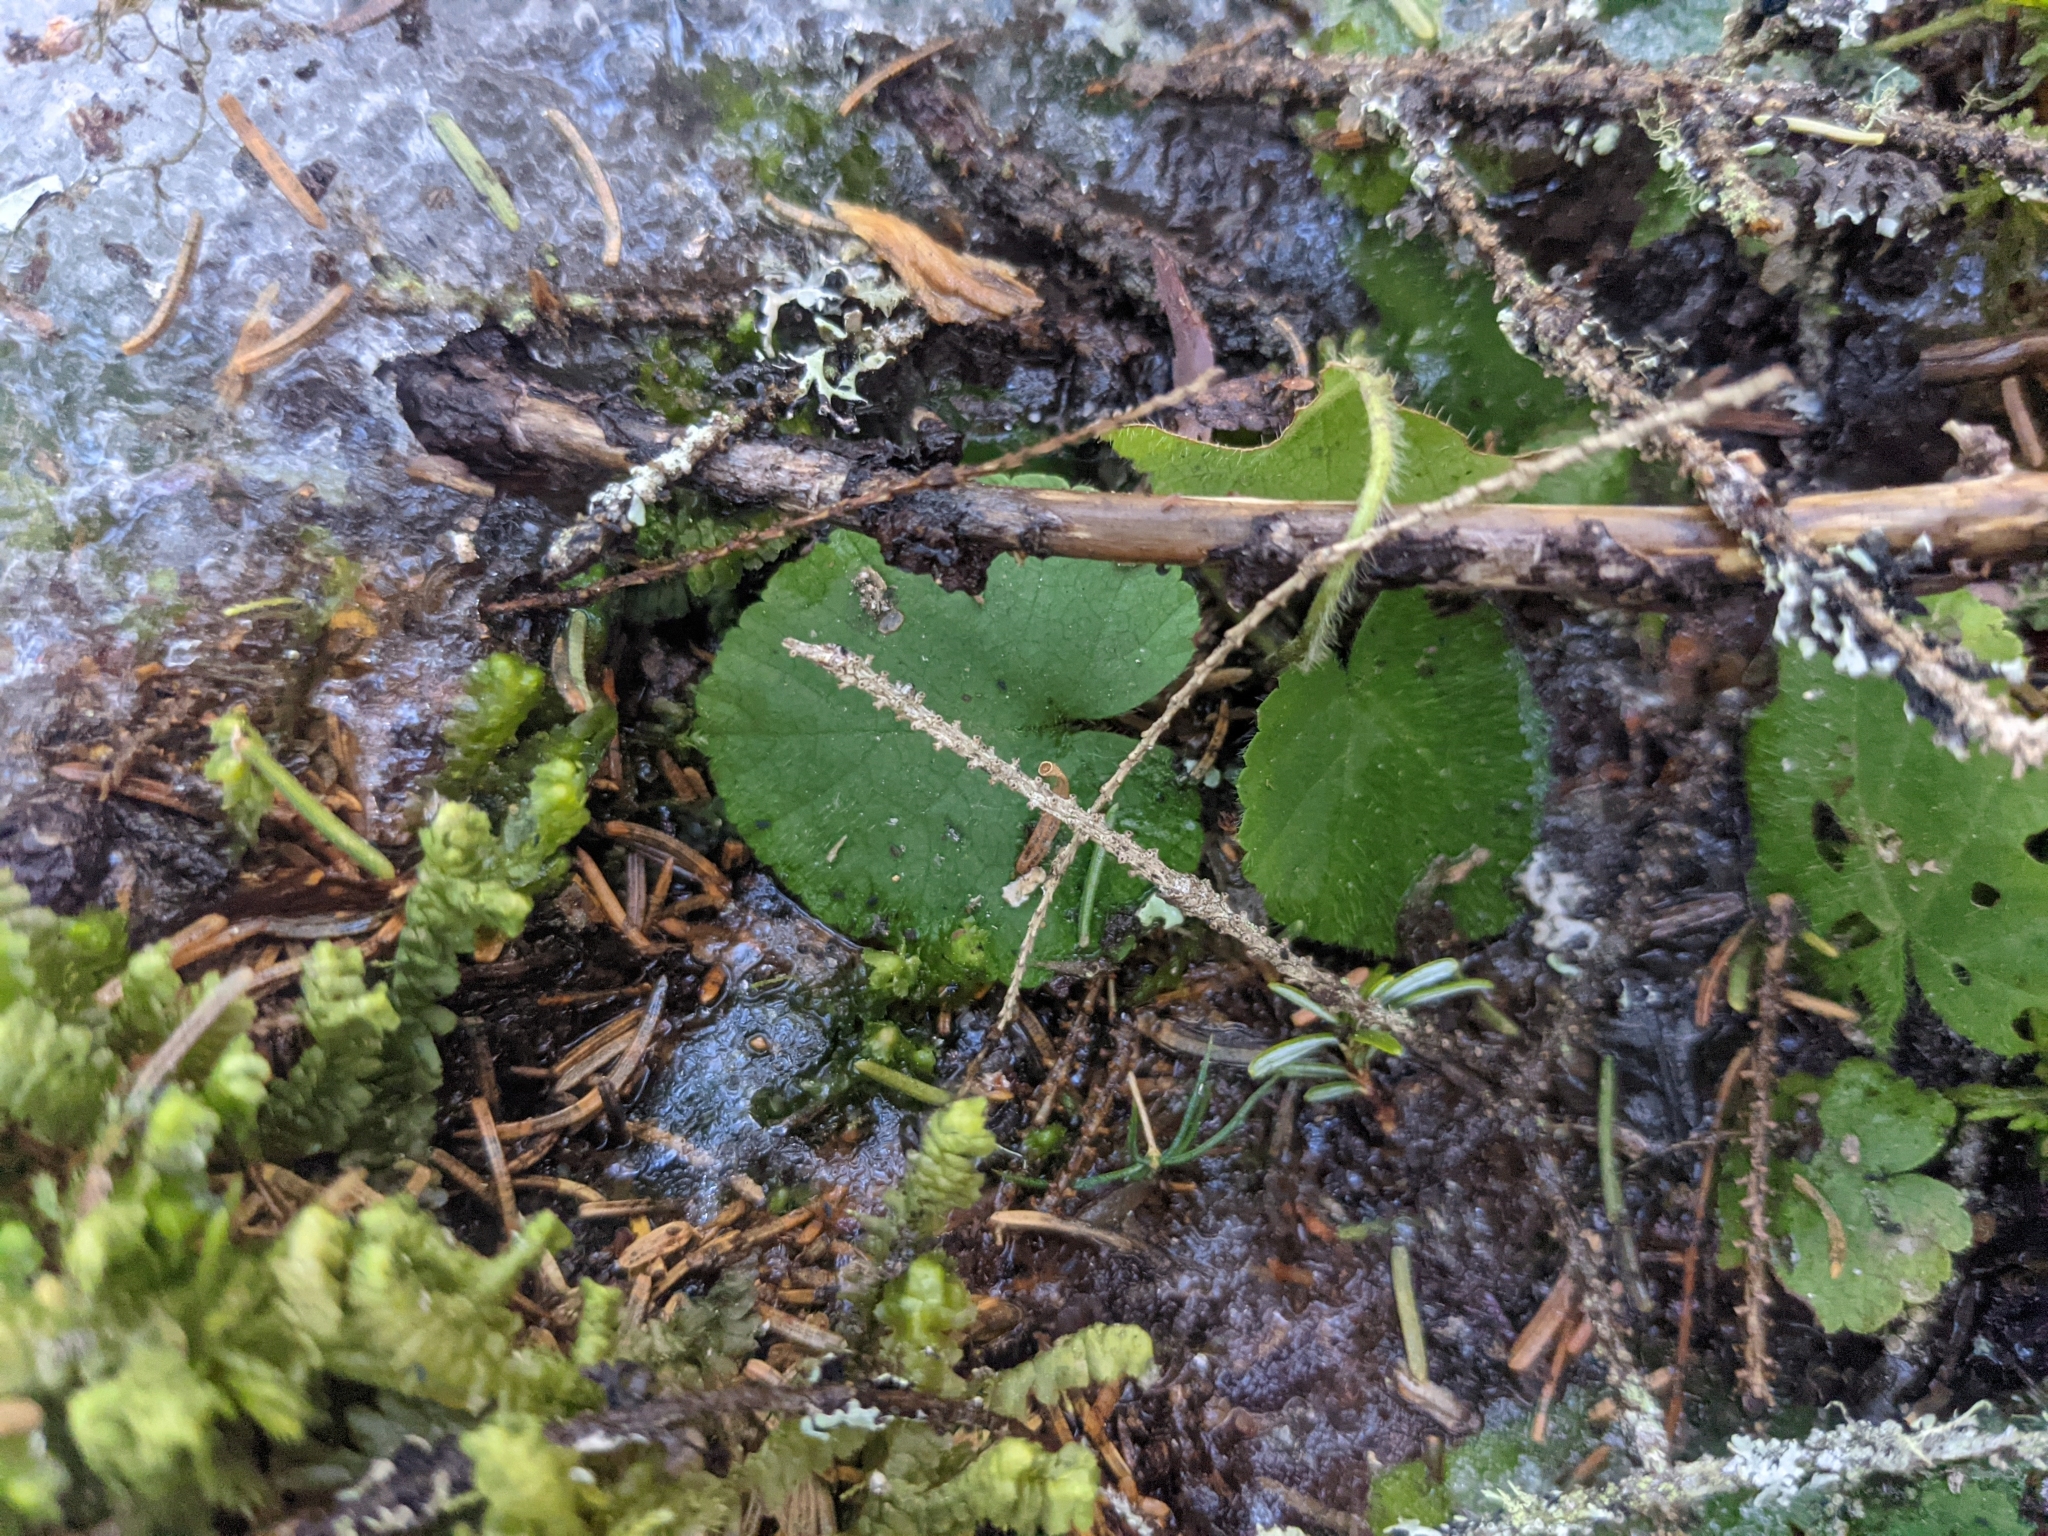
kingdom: Plantae
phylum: Tracheophyta
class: Magnoliopsida
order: Rosales
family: Rosaceae
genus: Dalibarda
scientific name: Dalibarda repens
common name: Dewdrop
